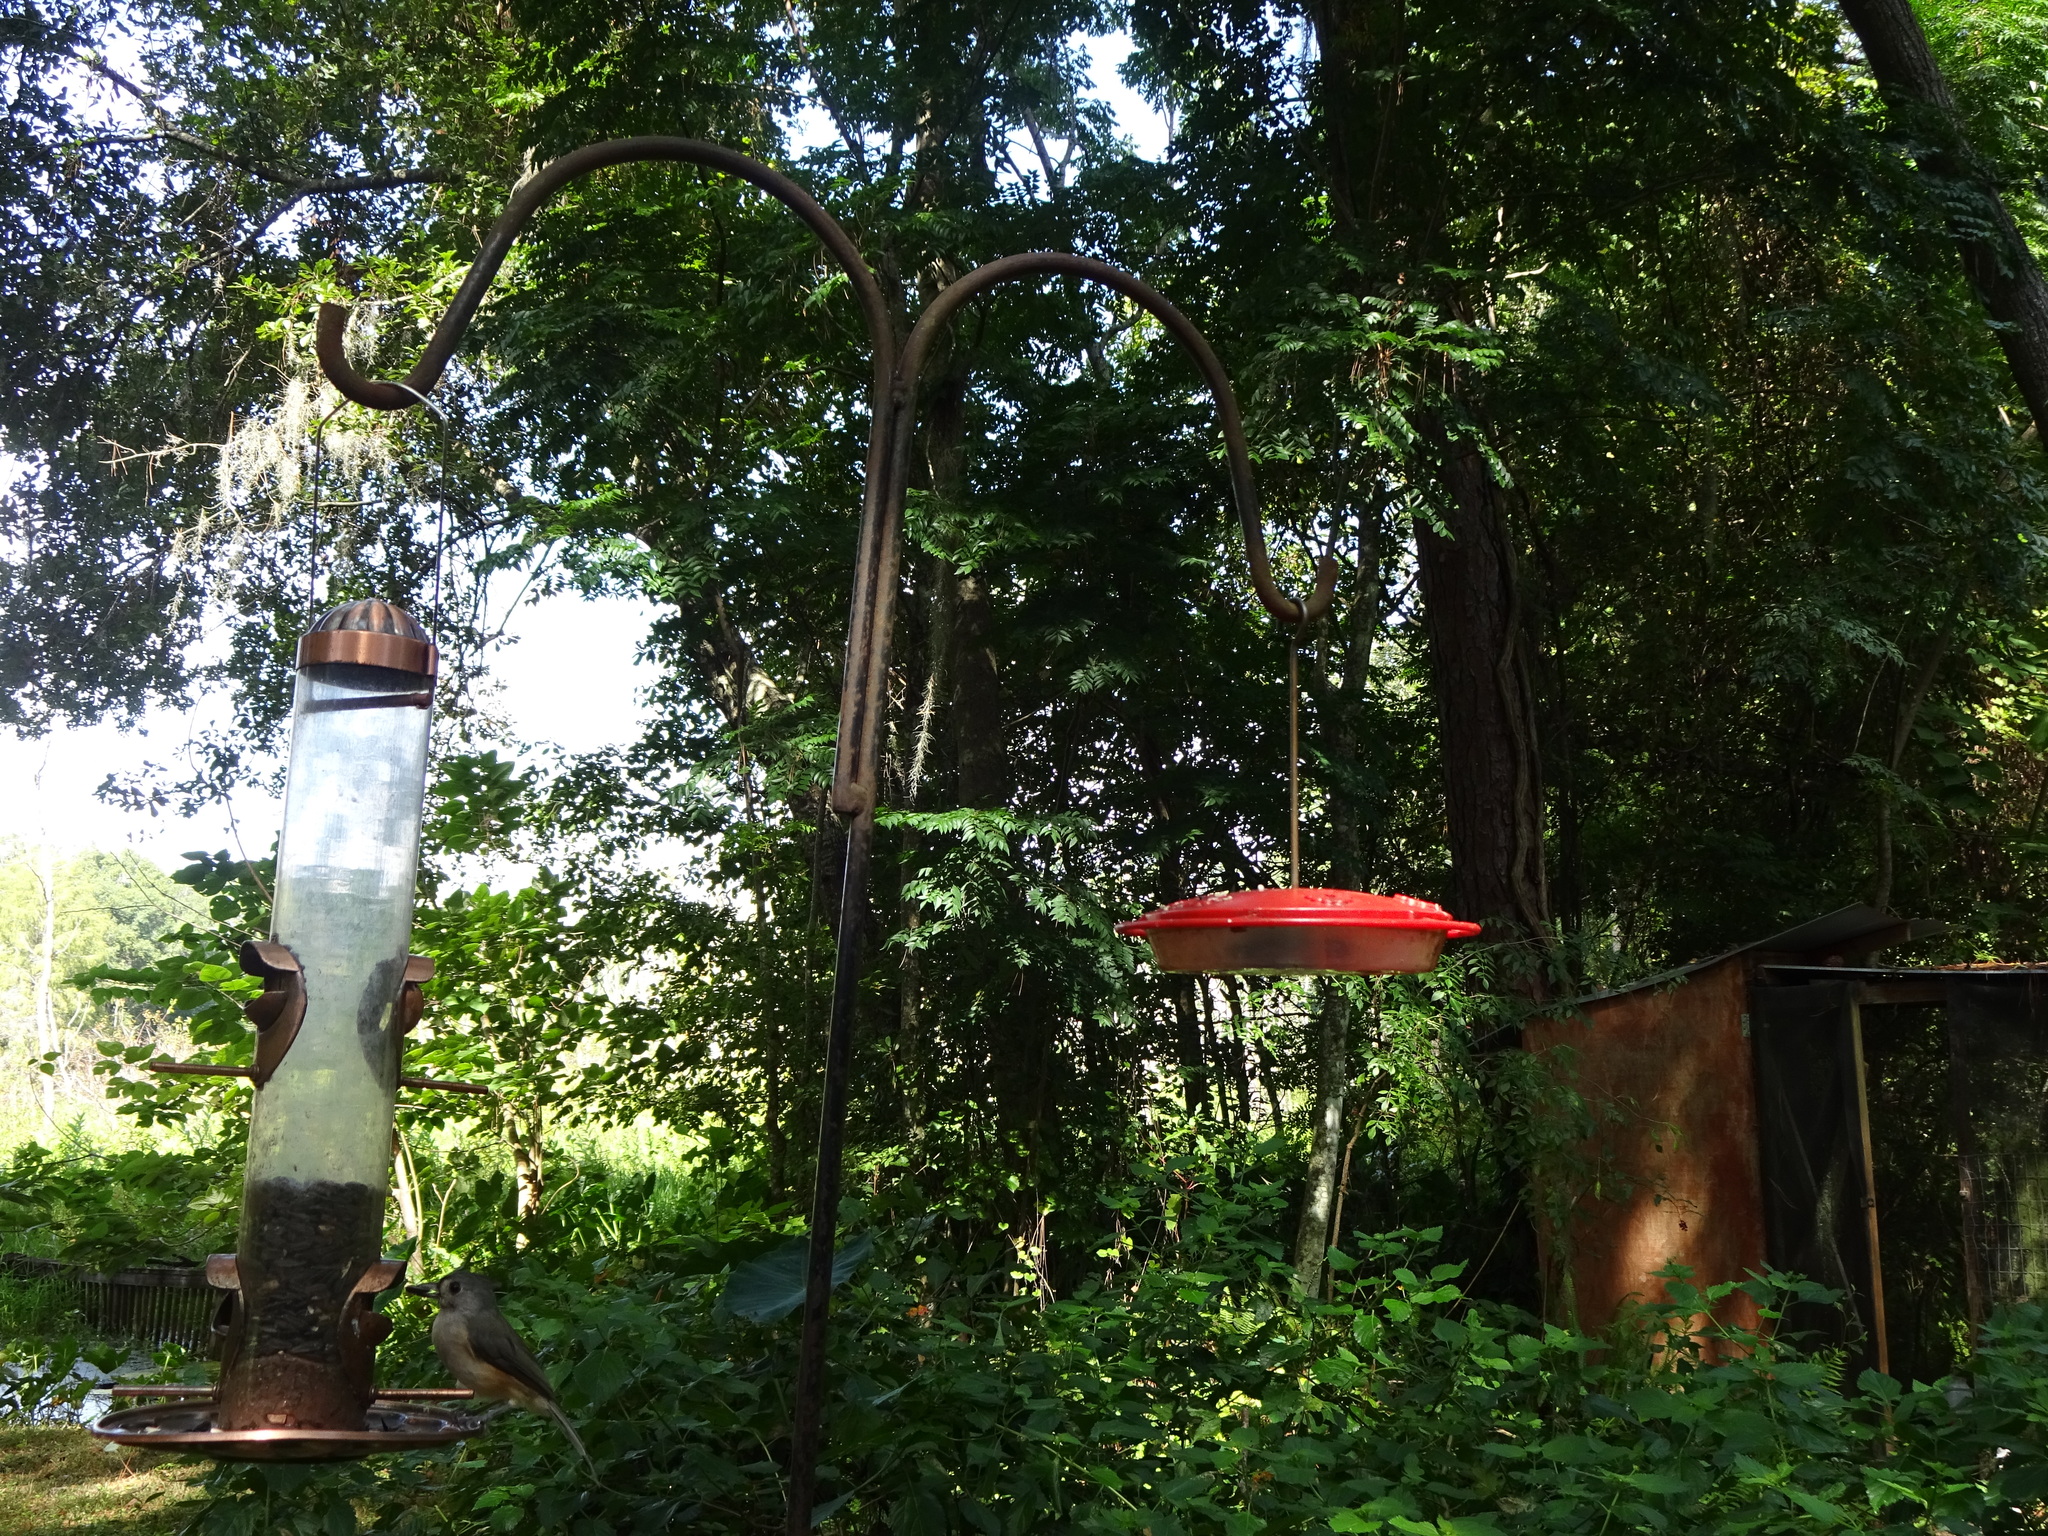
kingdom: Animalia
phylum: Chordata
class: Aves
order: Passeriformes
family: Paridae
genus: Baeolophus
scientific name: Baeolophus bicolor
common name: Tufted titmouse
